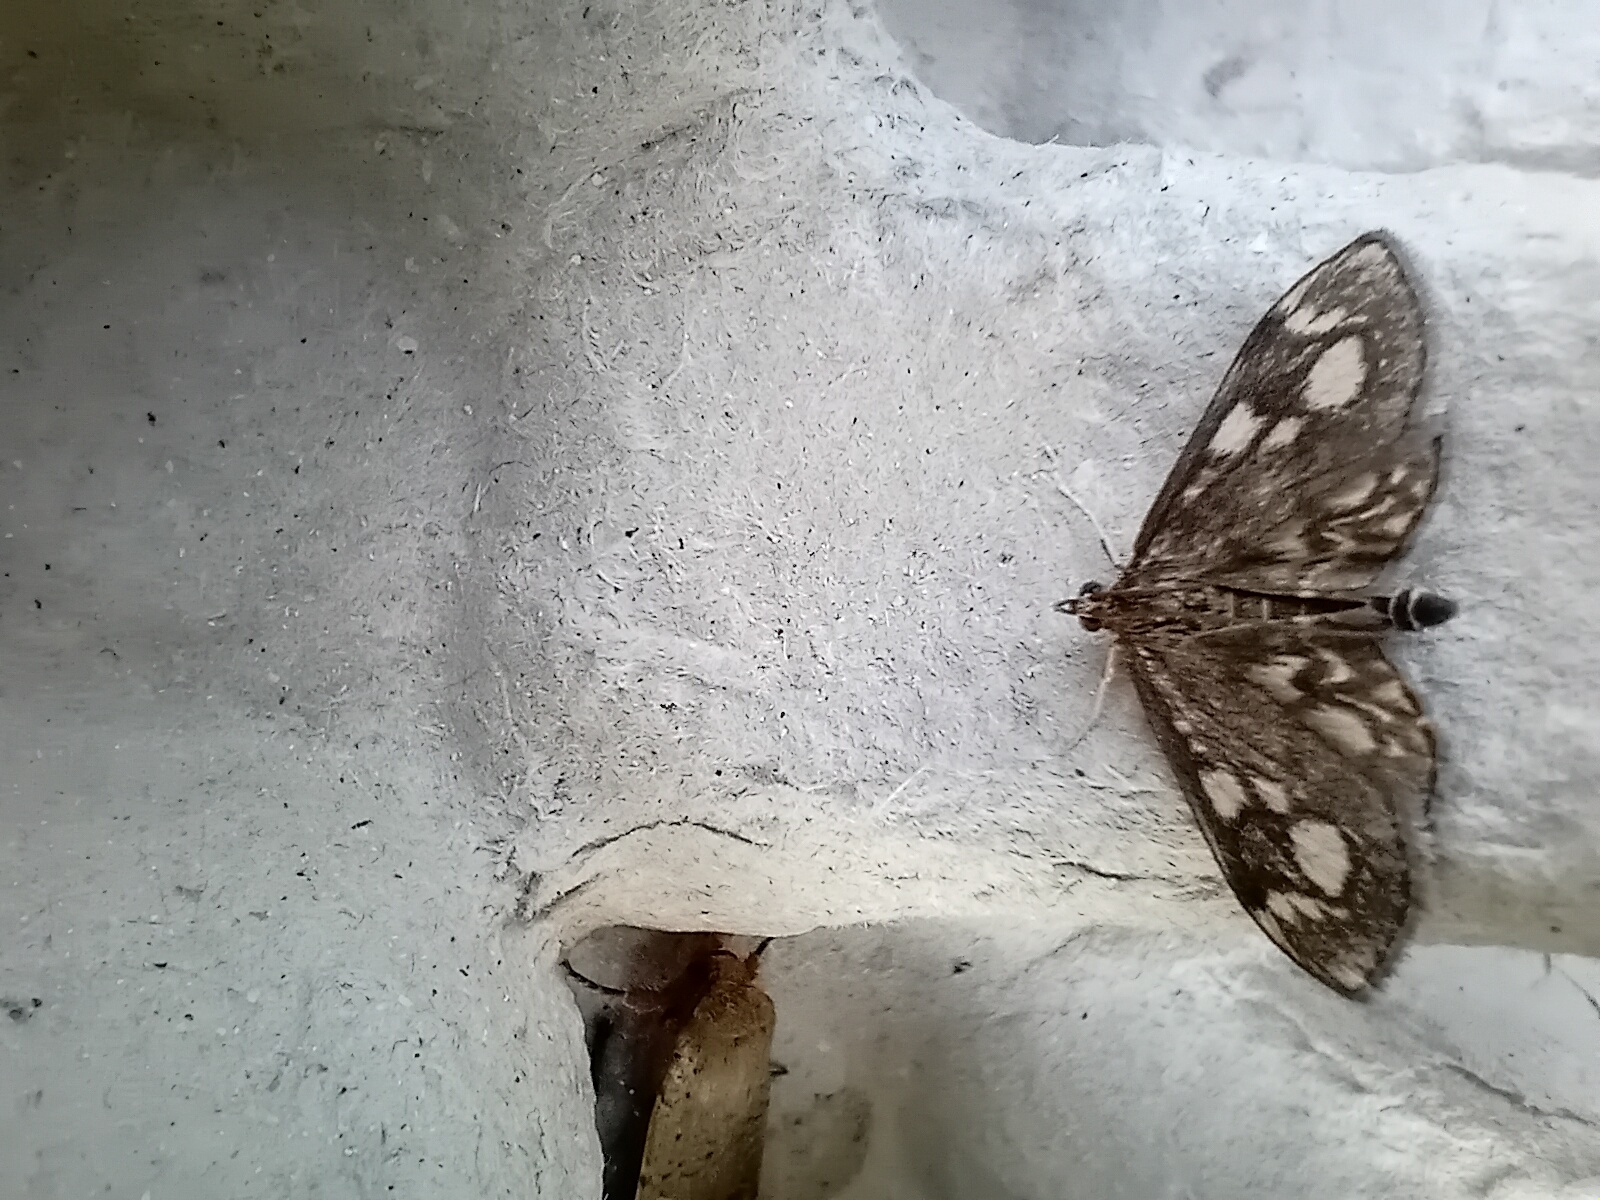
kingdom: Animalia
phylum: Arthropoda
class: Insecta
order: Lepidoptera
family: Crambidae
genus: Anania
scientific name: Anania coronata
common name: Elder pearl
